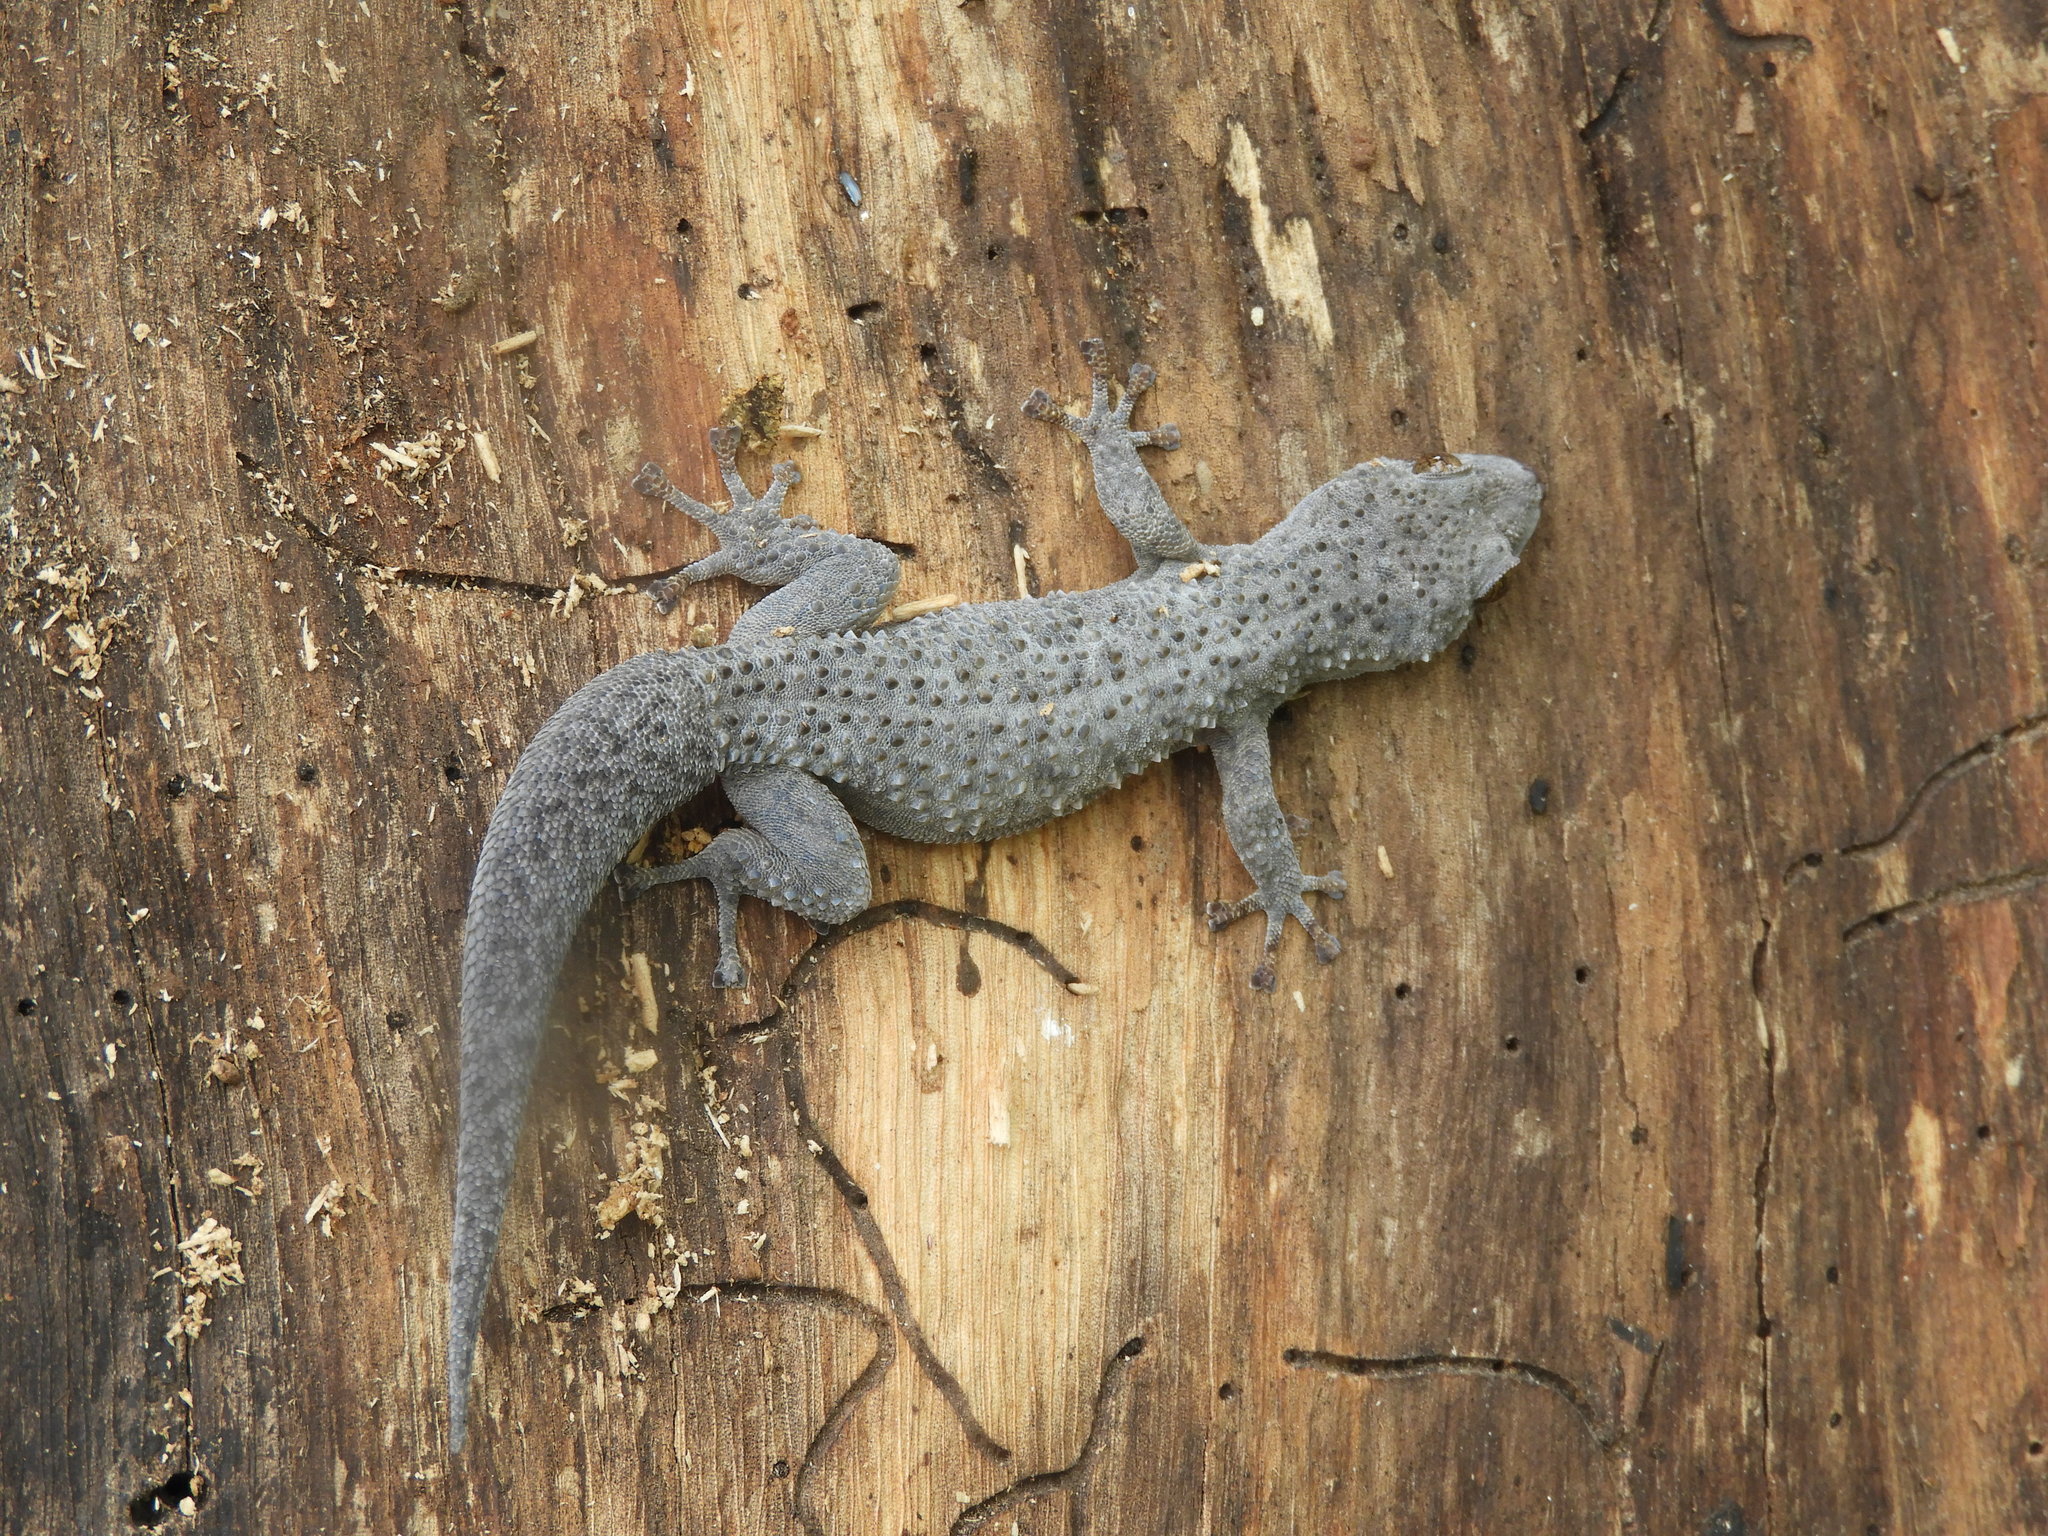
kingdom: Animalia
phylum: Chordata
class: Squamata
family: Phyllodactylidae
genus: Phyllodactylus
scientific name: Phyllodactylus
